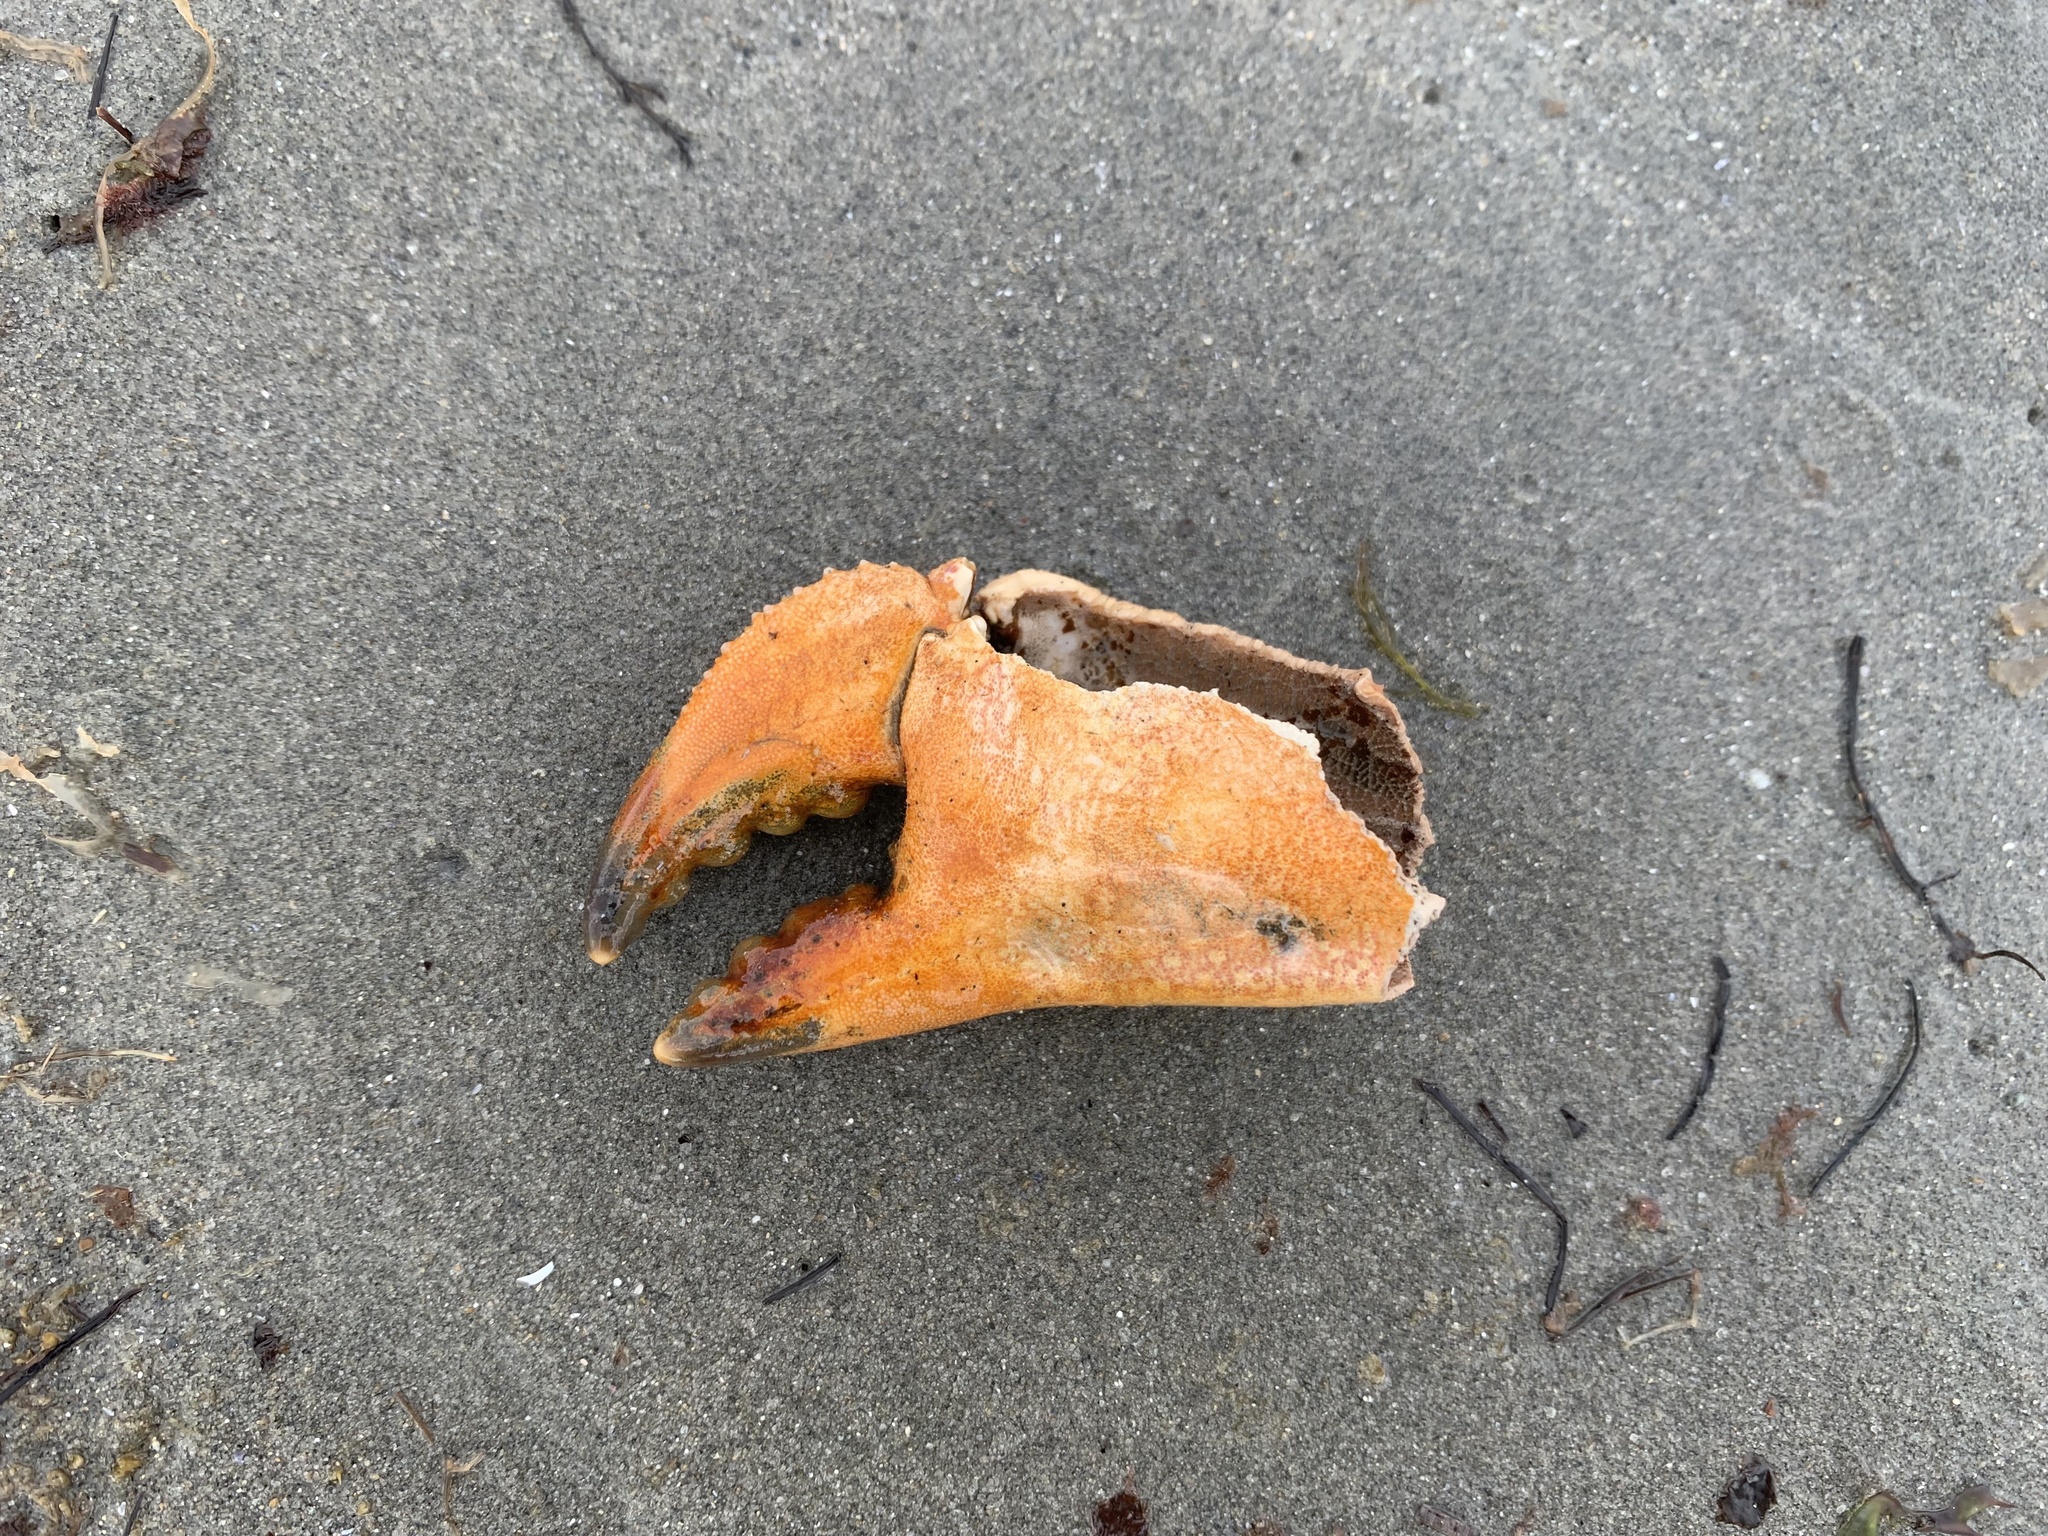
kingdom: Animalia
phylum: Arthropoda
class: Malacostraca
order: Decapoda
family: Cancridae
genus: Cancer
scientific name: Cancer borealis
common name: Jonah crab
